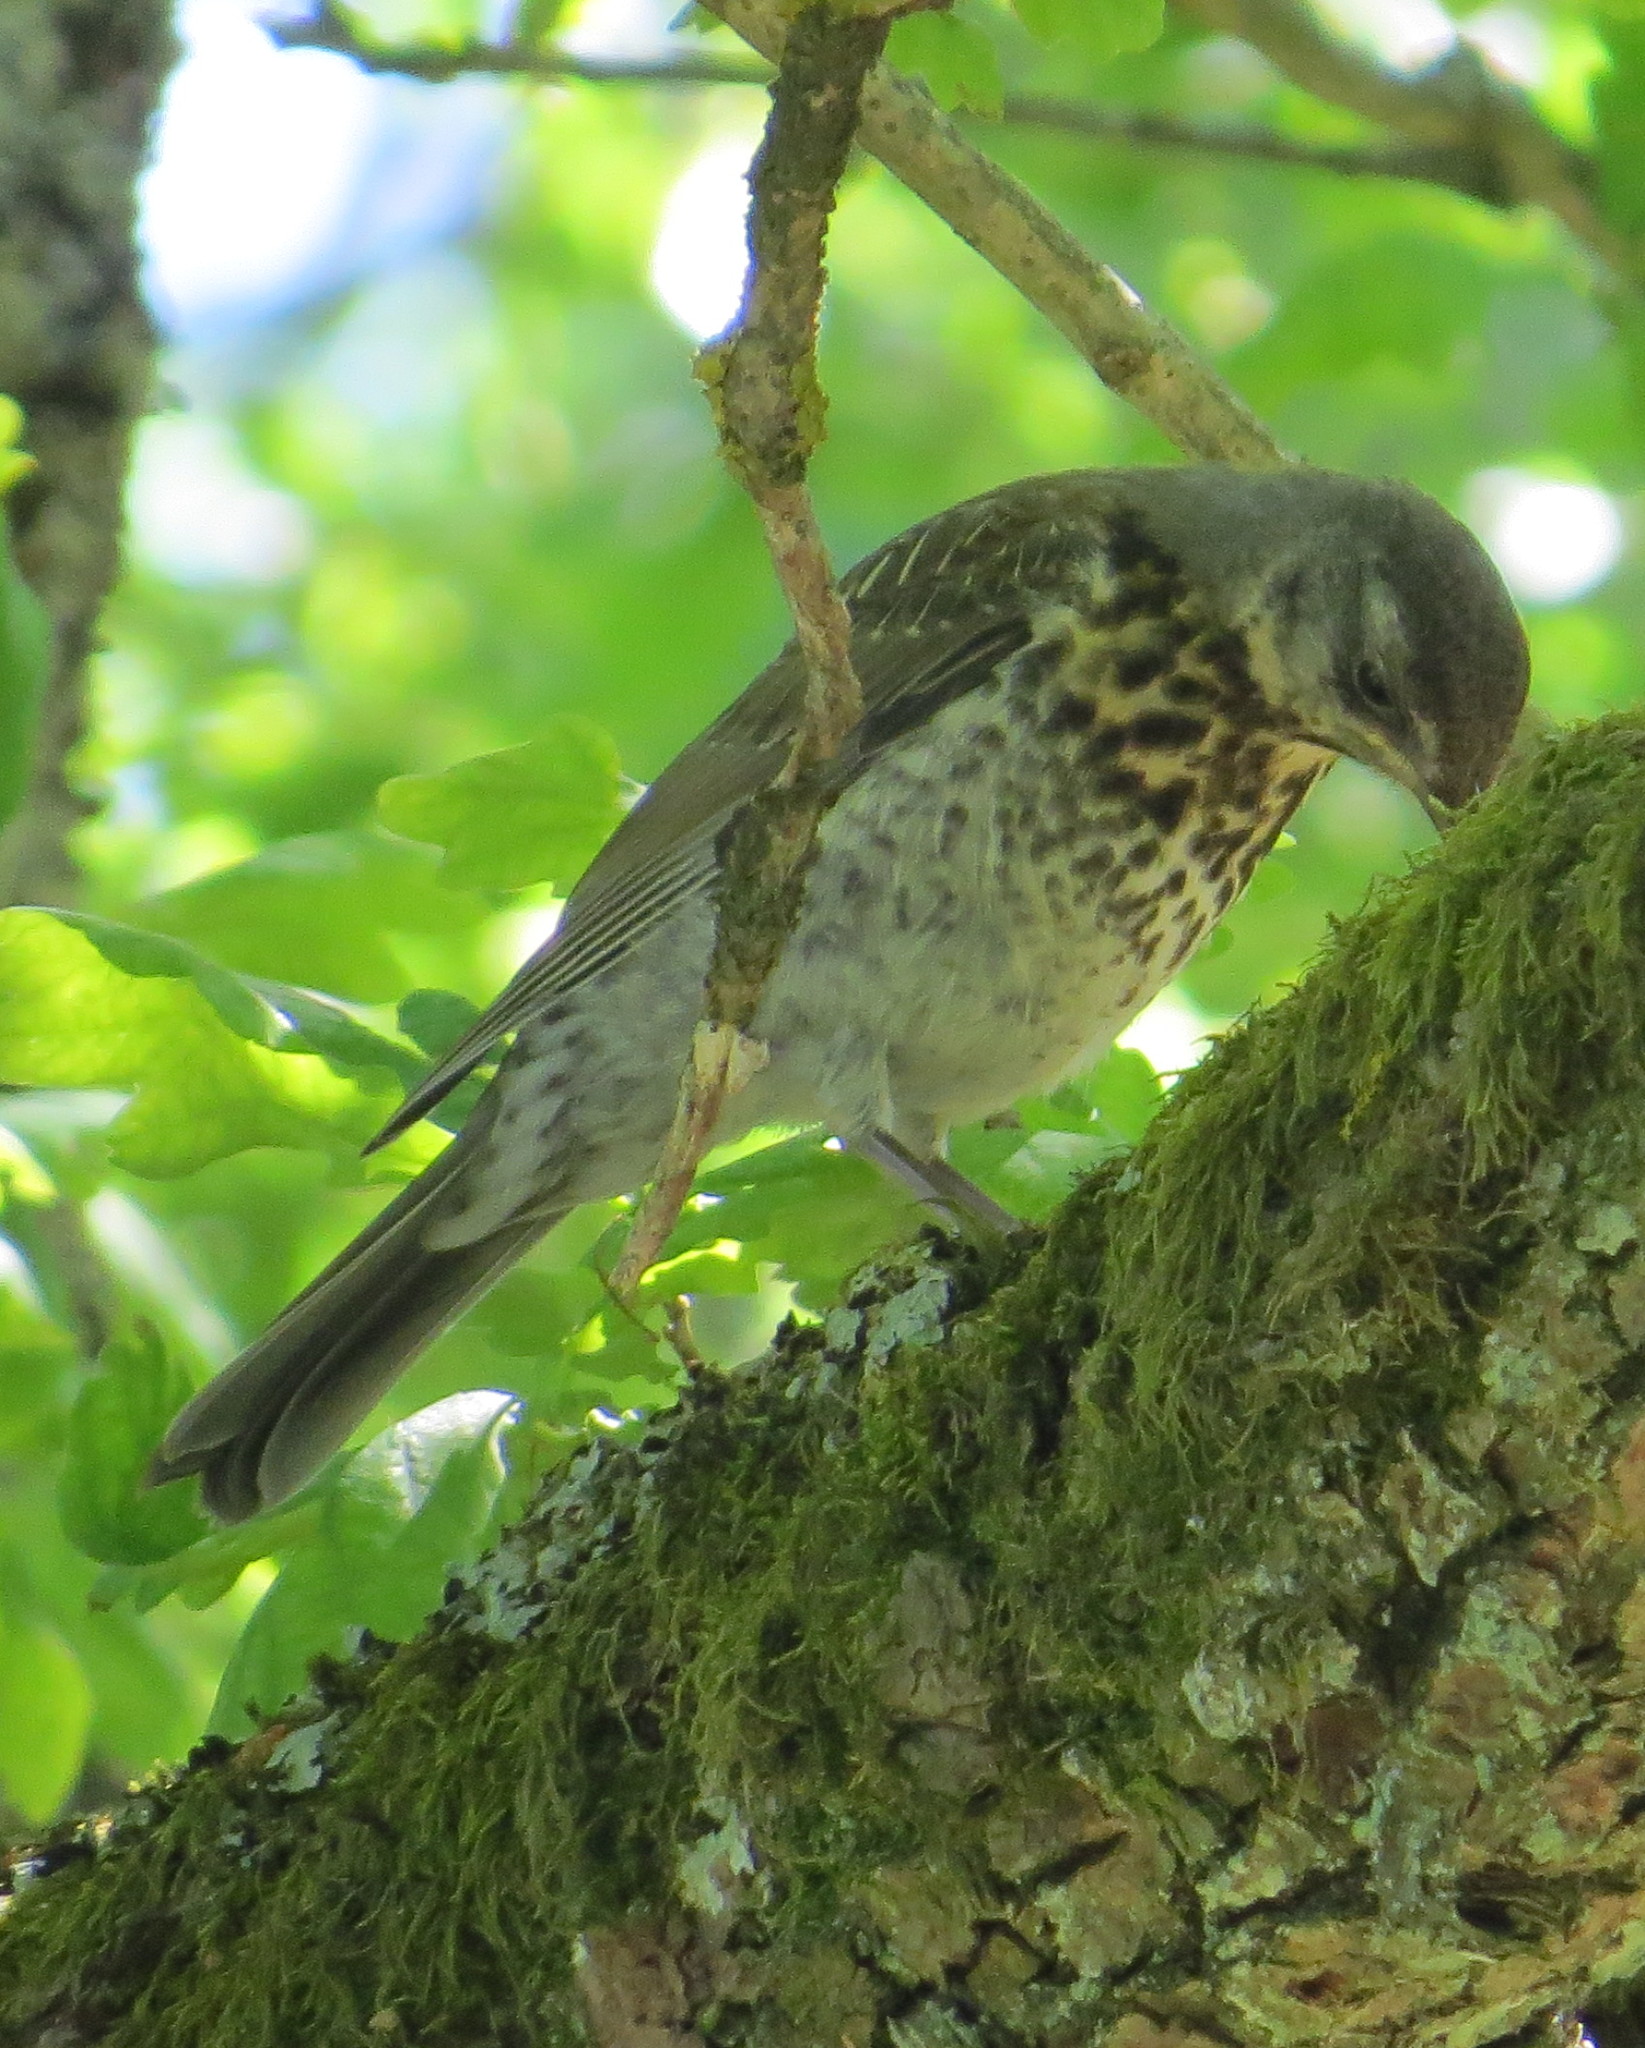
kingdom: Animalia
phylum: Chordata
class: Aves
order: Passeriformes
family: Turdidae
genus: Turdus
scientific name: Turdus pilaris
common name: Fieldfare
